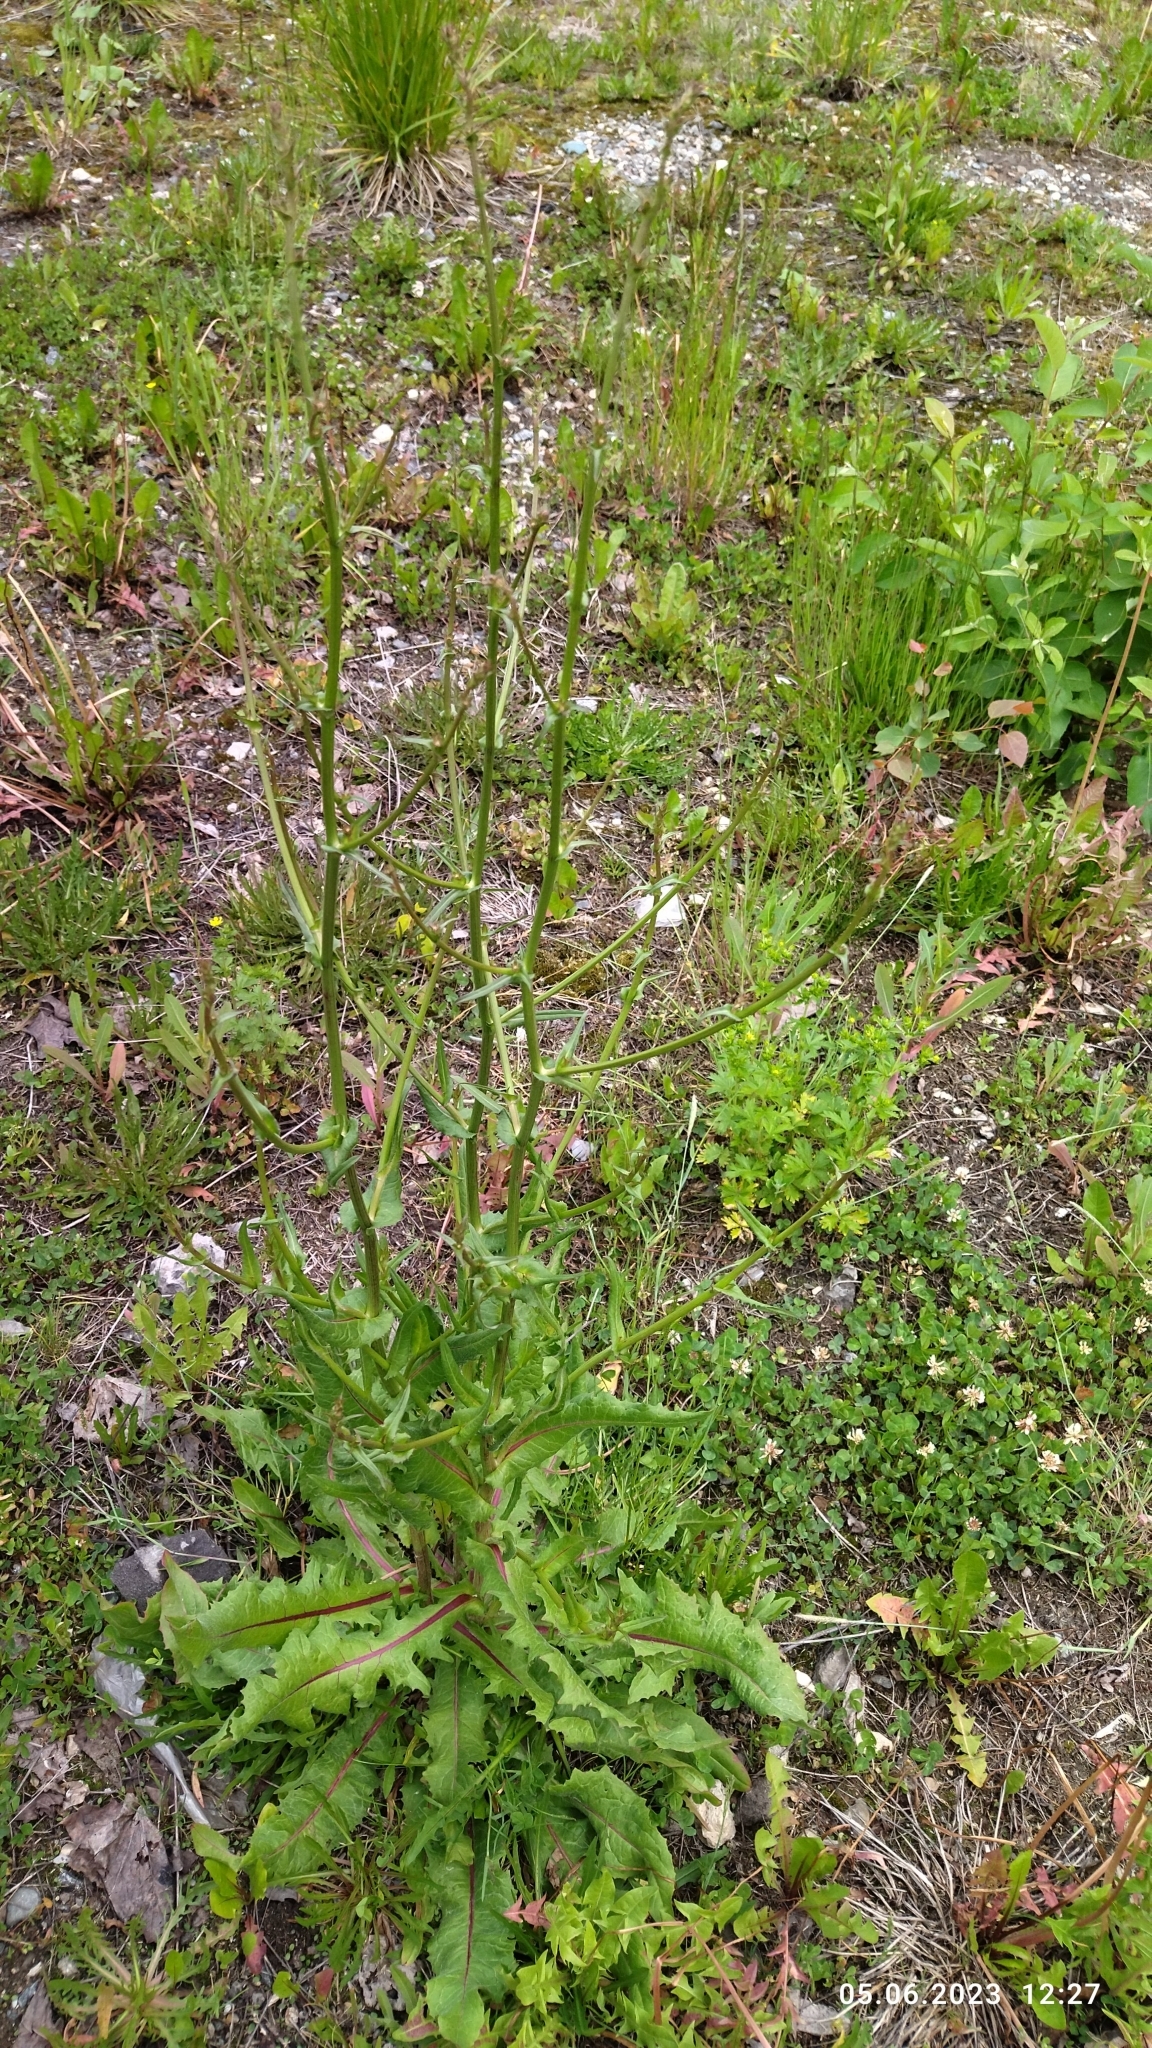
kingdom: Plantae
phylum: Tracheophyta
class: Magnoliopsida
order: Asterales
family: Asteraceae
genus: Cichorium
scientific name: Cichorium intybus
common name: Chicory
